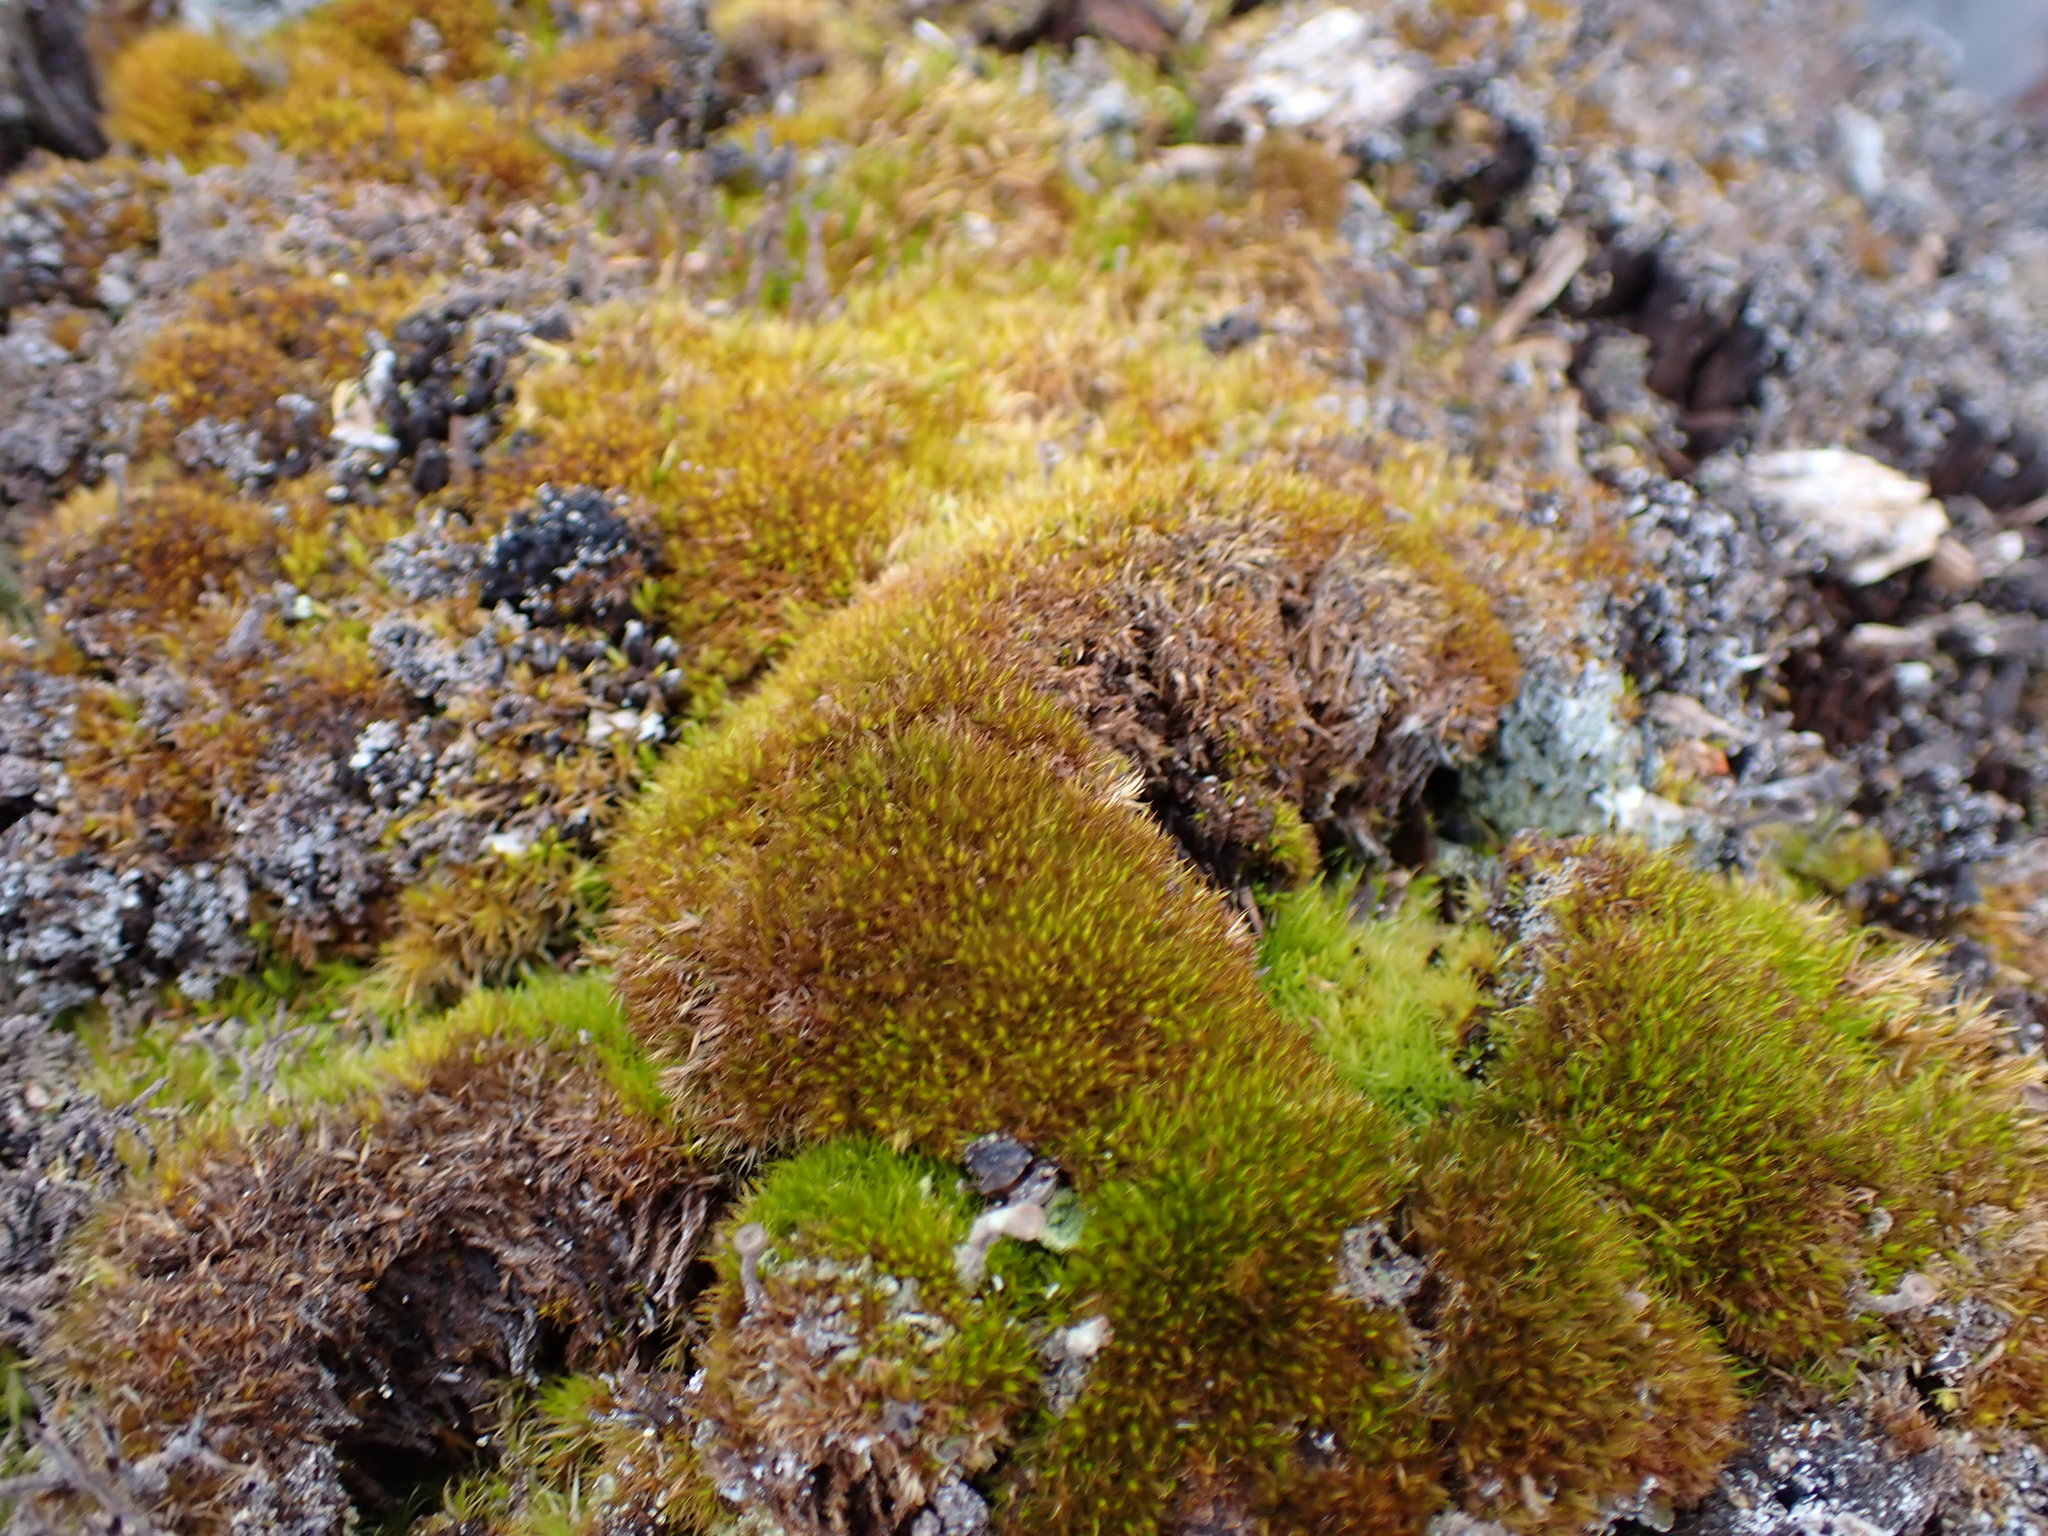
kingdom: Plantae
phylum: Bryophyta
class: Bryopsida
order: Dicranales
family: Dicranaceae
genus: Orthodicranum
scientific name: Orthodicranum tauricum
